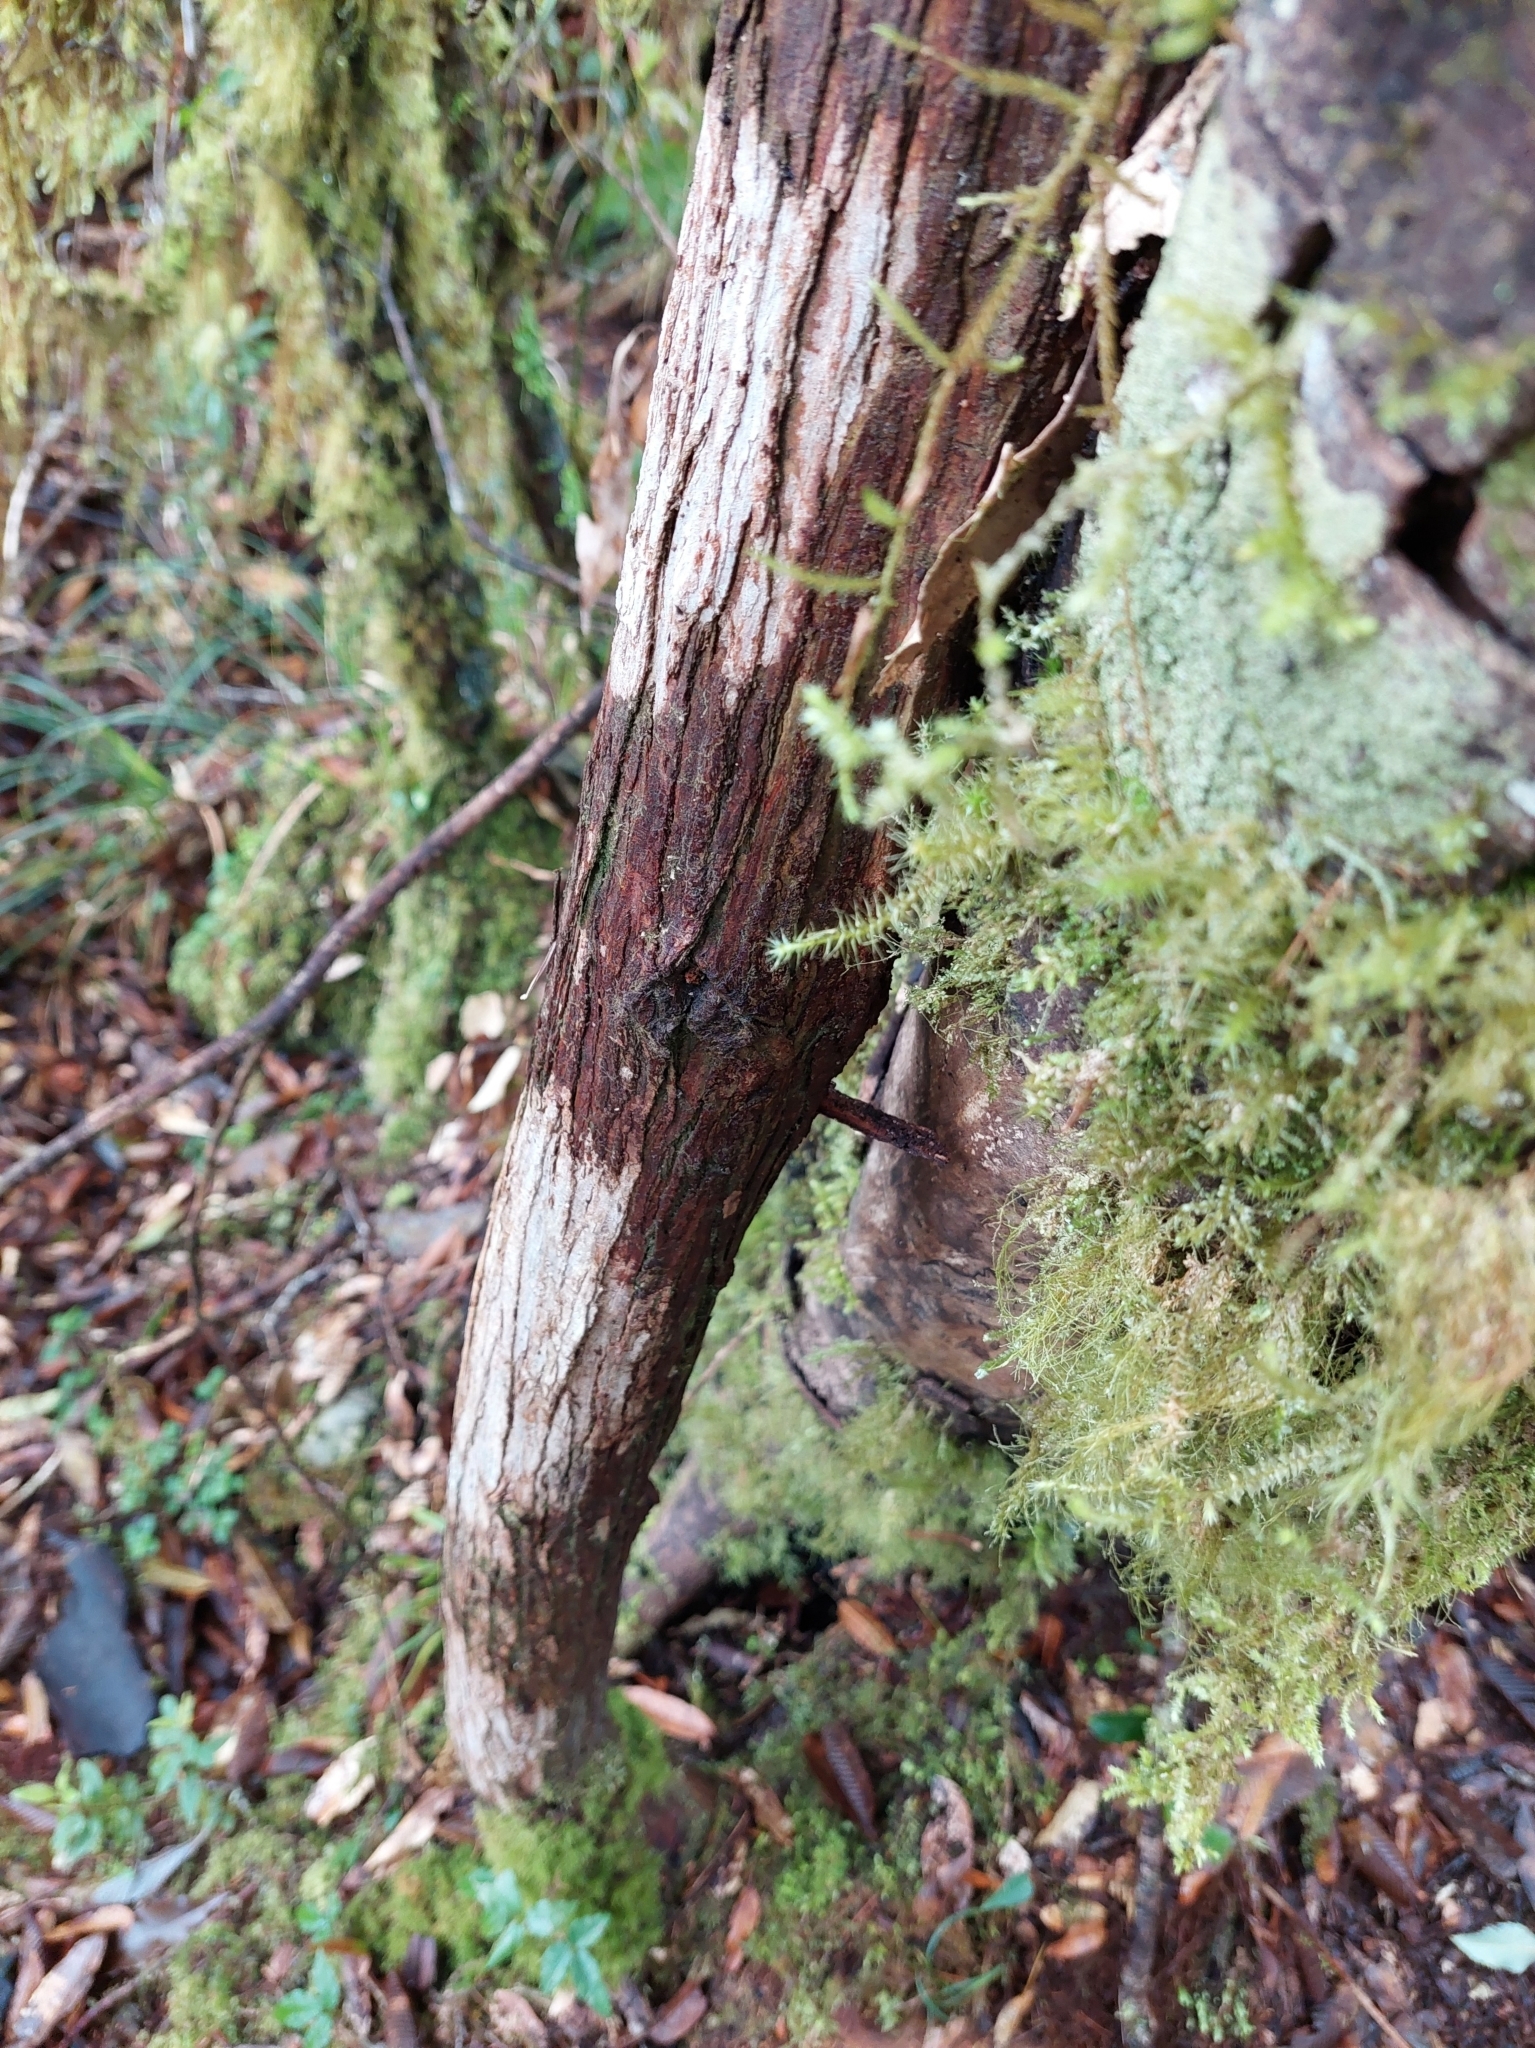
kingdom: Plantae
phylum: Tracheophyta
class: Pinopsida
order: Pinales
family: Cupressaceae
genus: Chamaecyparis
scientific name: Chamaecyparis obtusa
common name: Hinoki false cypress
